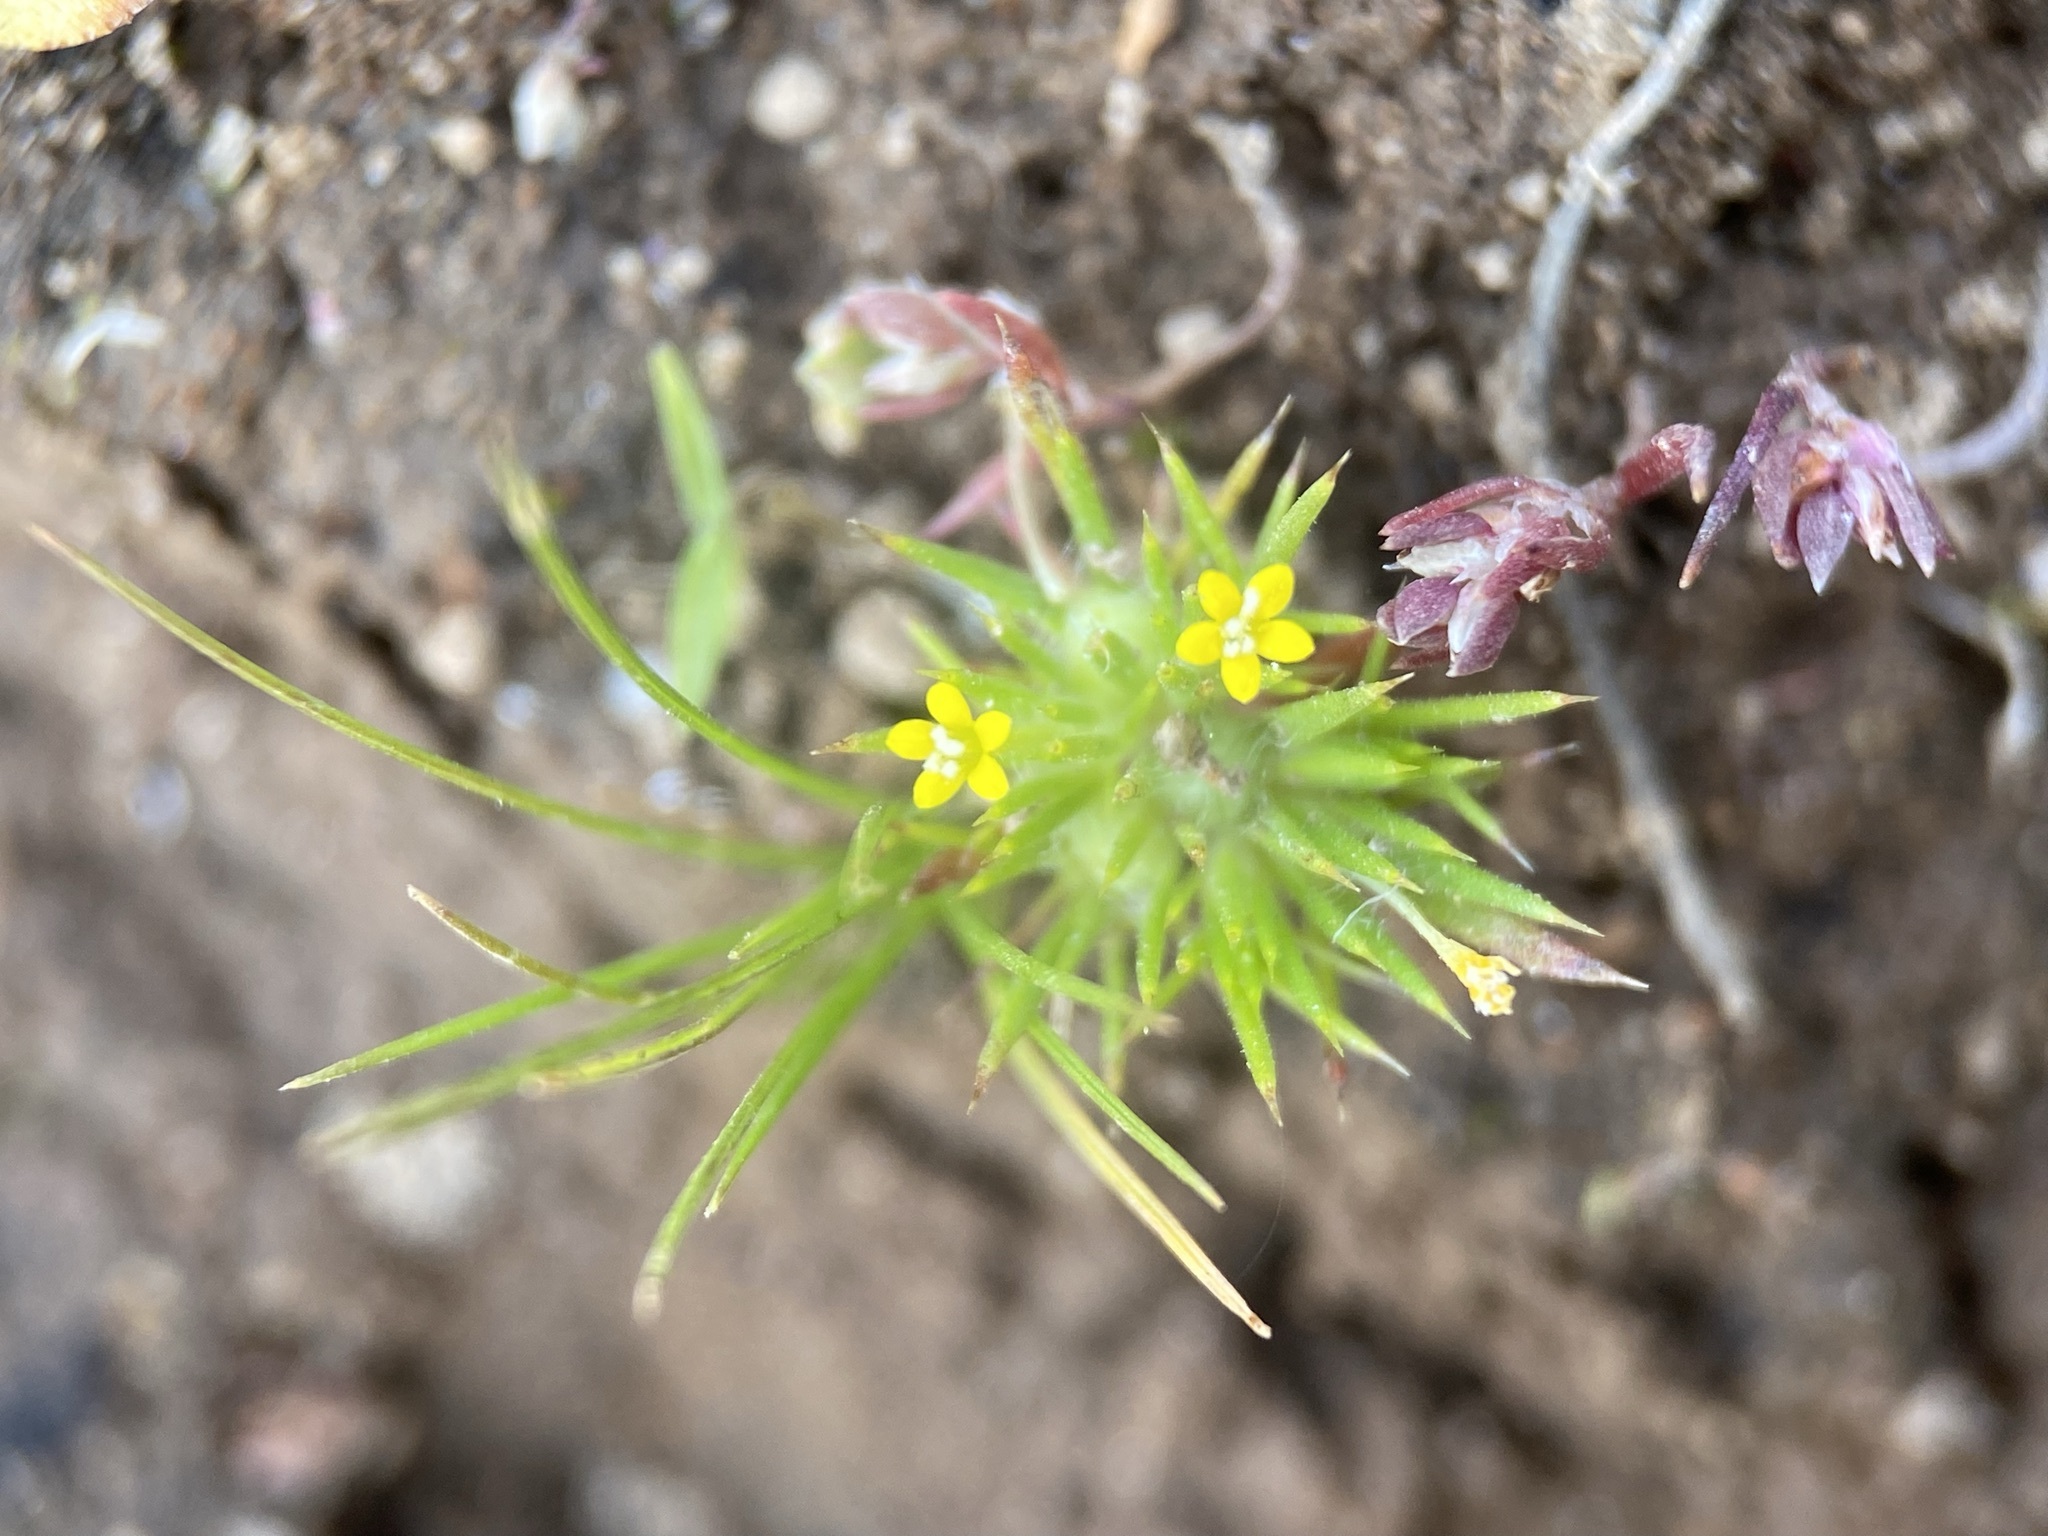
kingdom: Plantae
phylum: Tracheophyta
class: Magnoliopsida
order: Ericales
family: Polemoniaceae
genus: Navarretia
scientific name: Navarretia breweri
